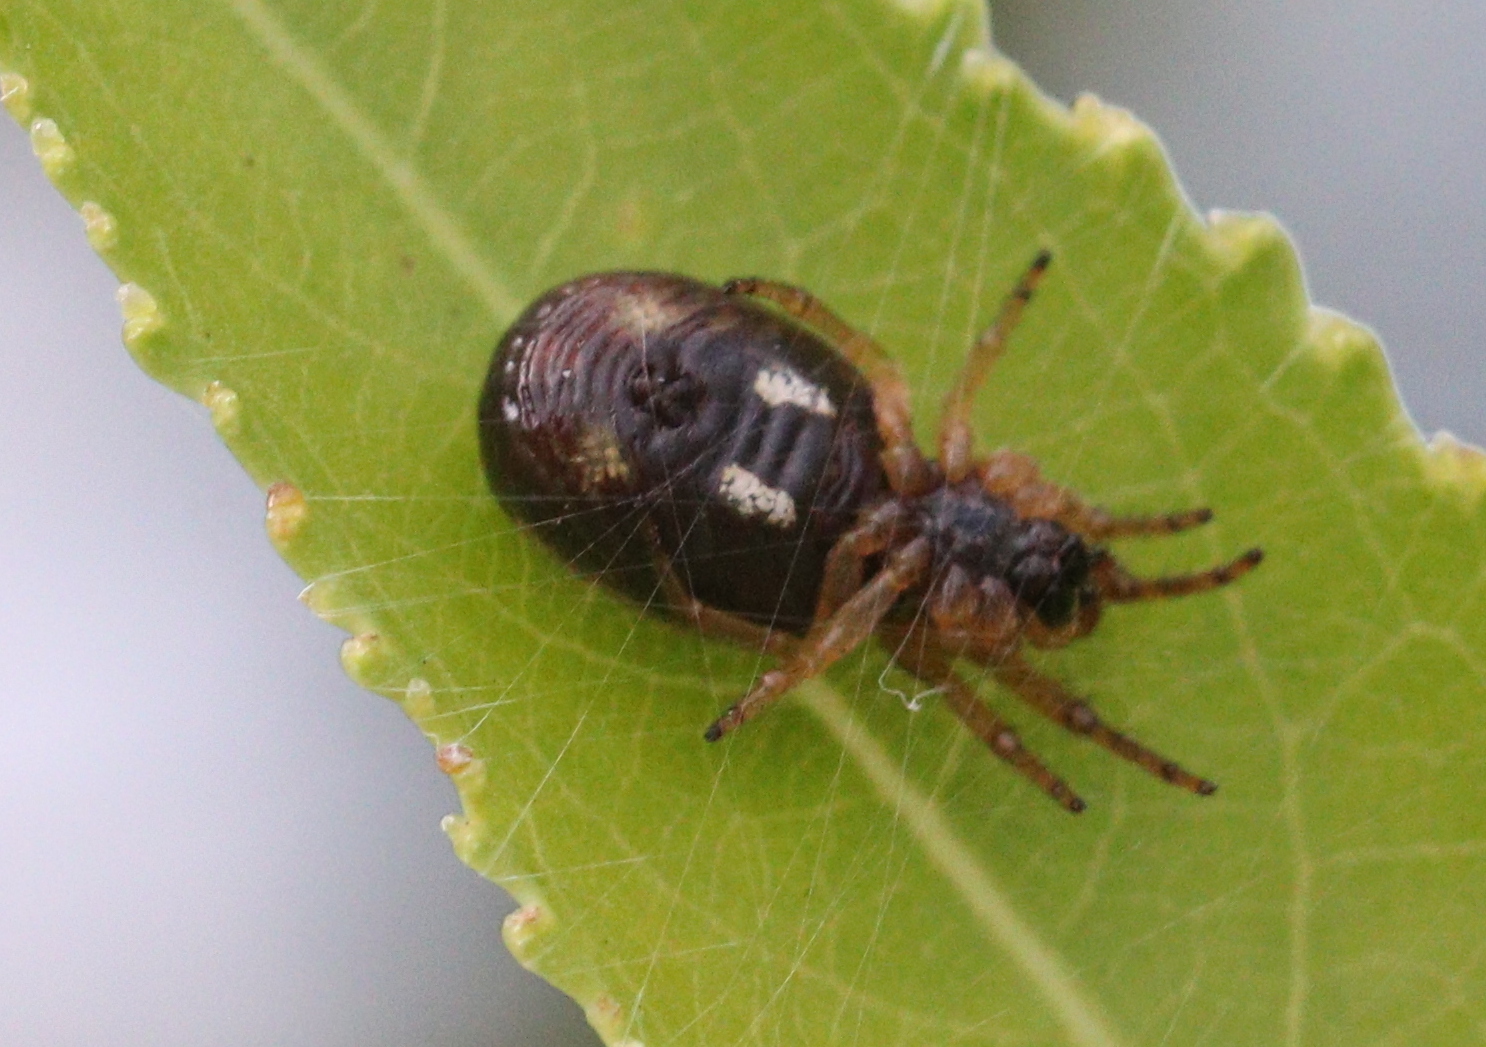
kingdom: Animalia
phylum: Arthropoda
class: Arachnida
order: Araneae
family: Araneidae
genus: Singa
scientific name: Singa nitidula
